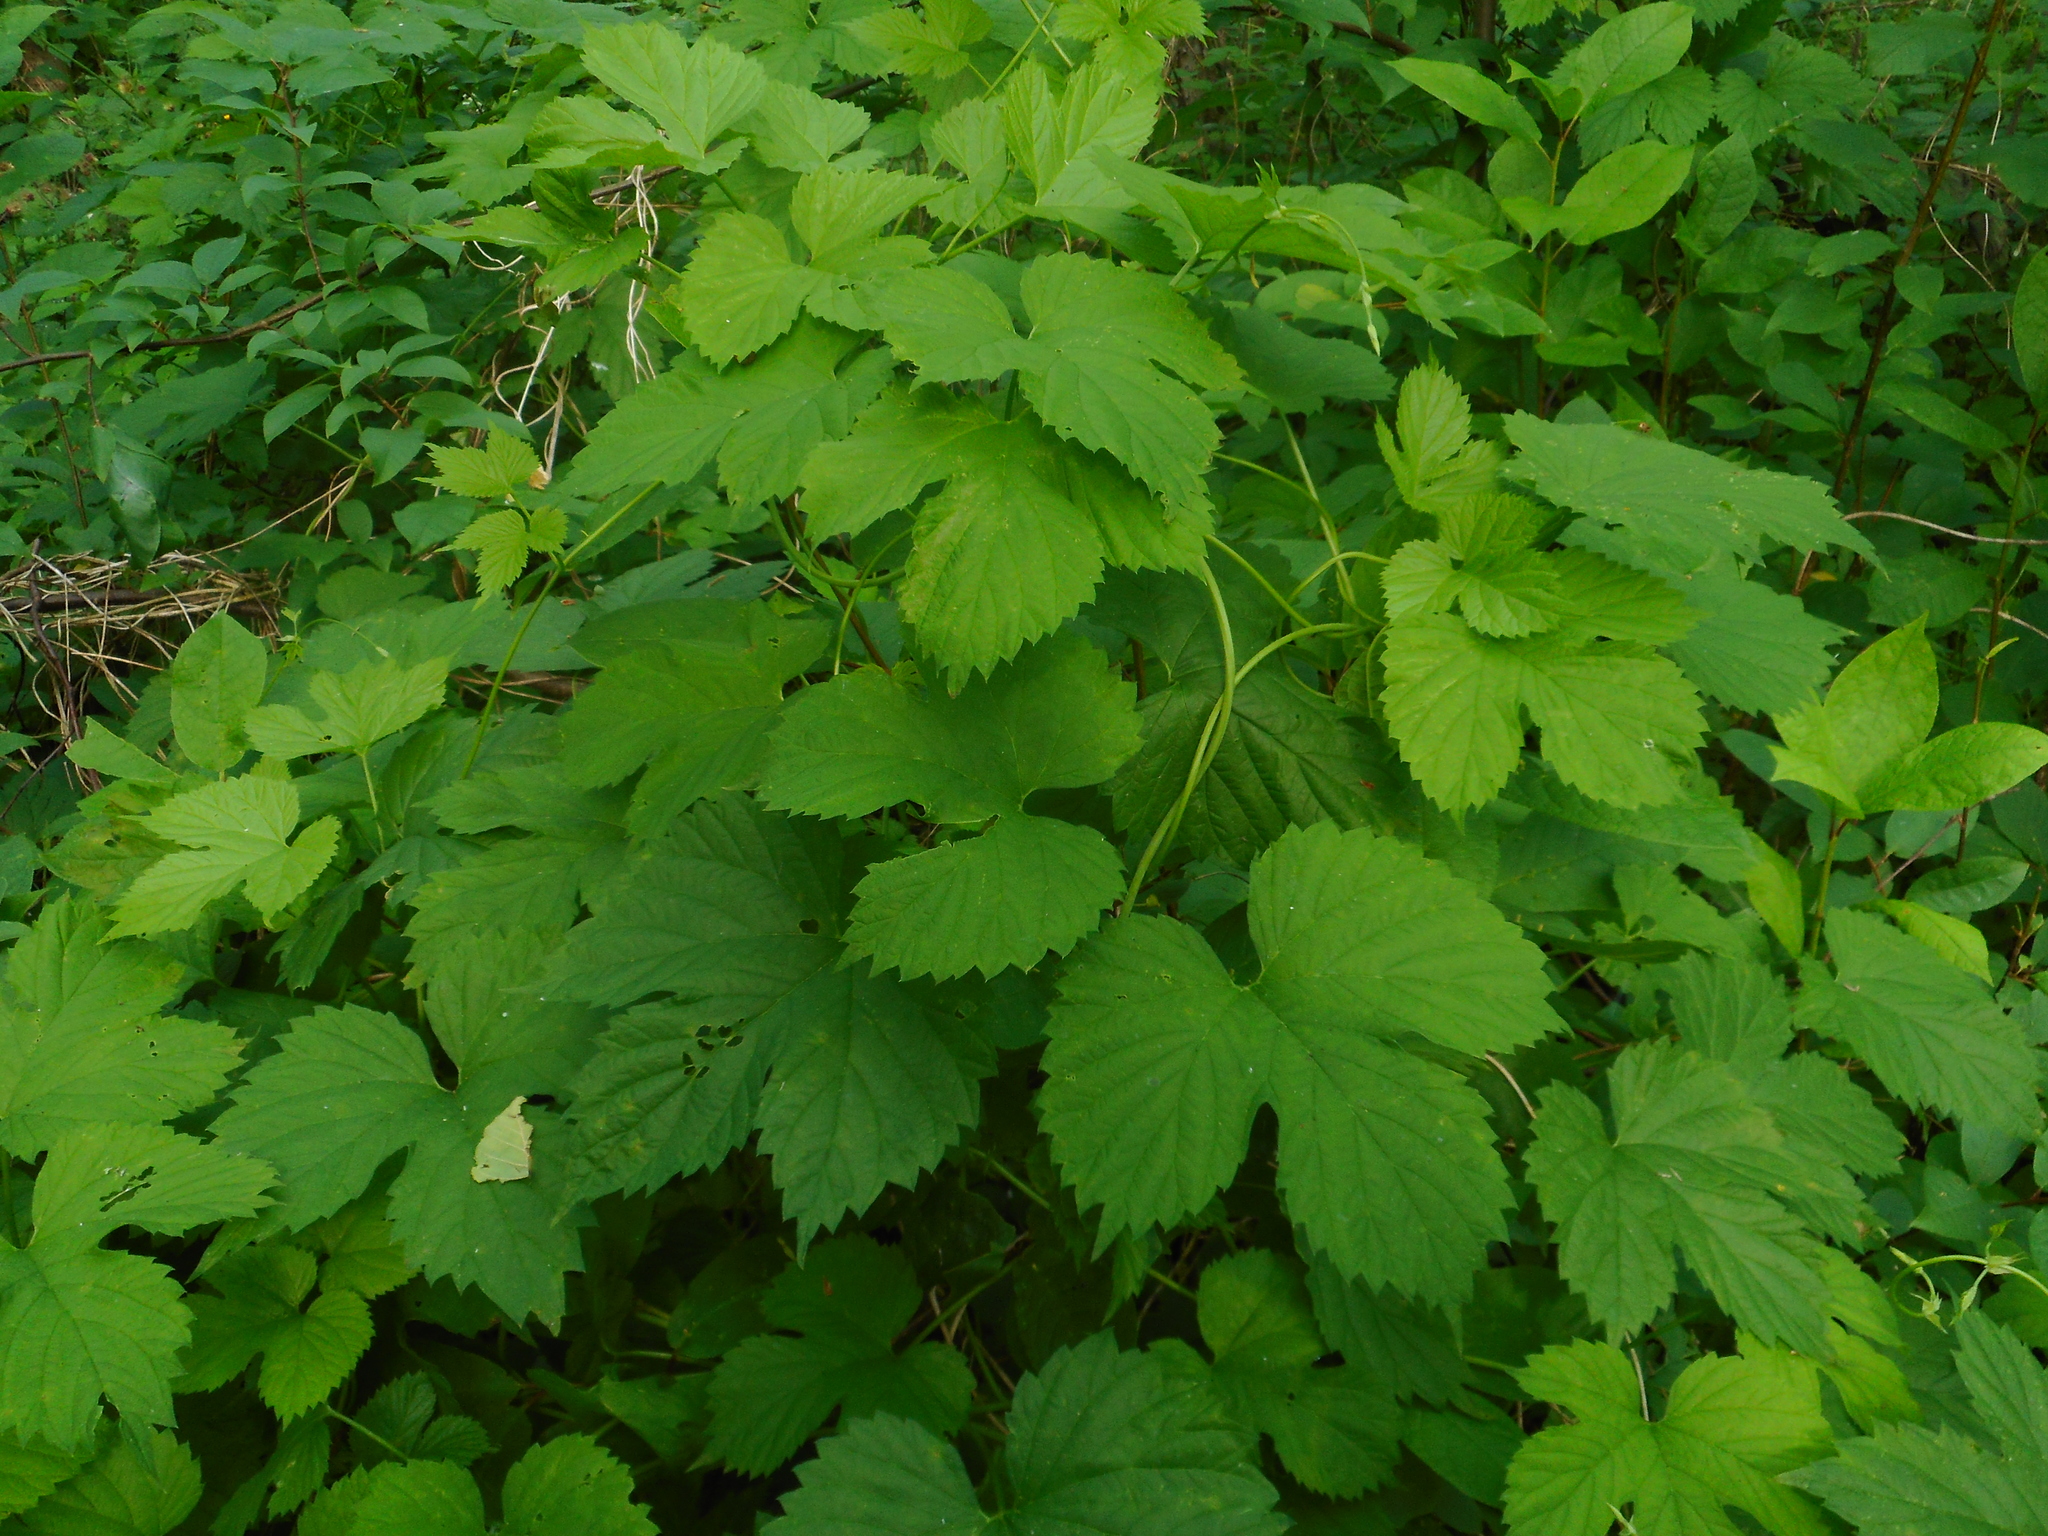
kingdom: Plantae
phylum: Tracheophyta
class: Magnoliopsida
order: Rosales
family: Cannabaceae
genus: Humulus
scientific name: Humulus lupulus
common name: Hop
